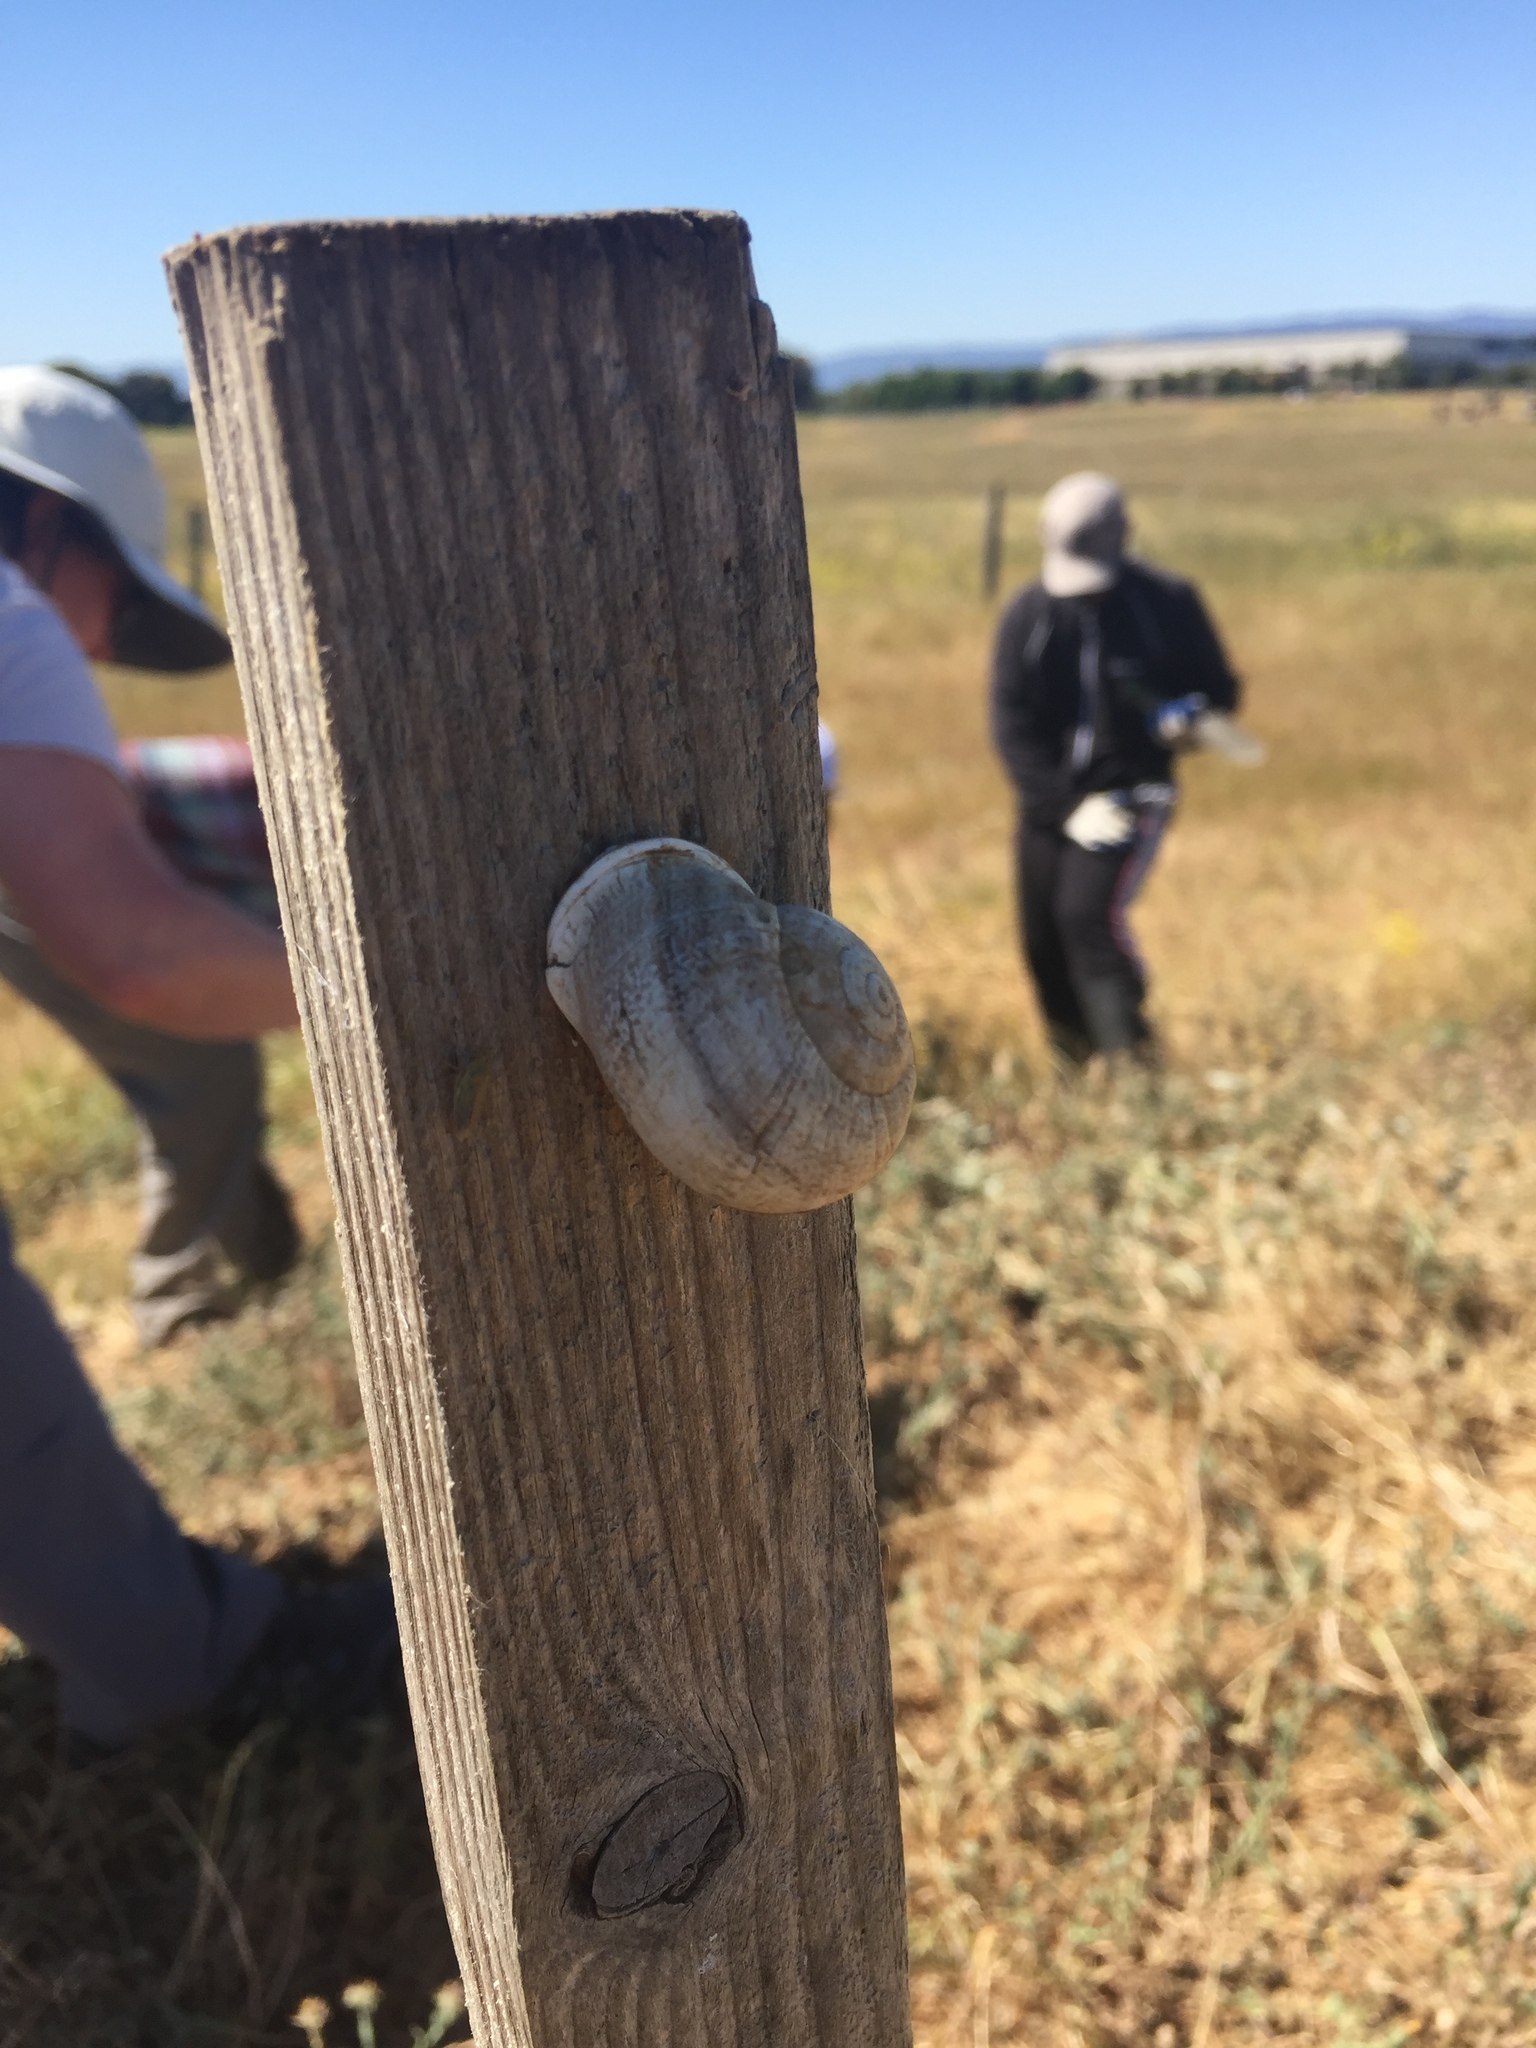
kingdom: Animalia
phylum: Mollusca
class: Gastropoda
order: Stylommatophora
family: Helicidae
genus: Otala
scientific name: Otala lactea
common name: Milk snail
